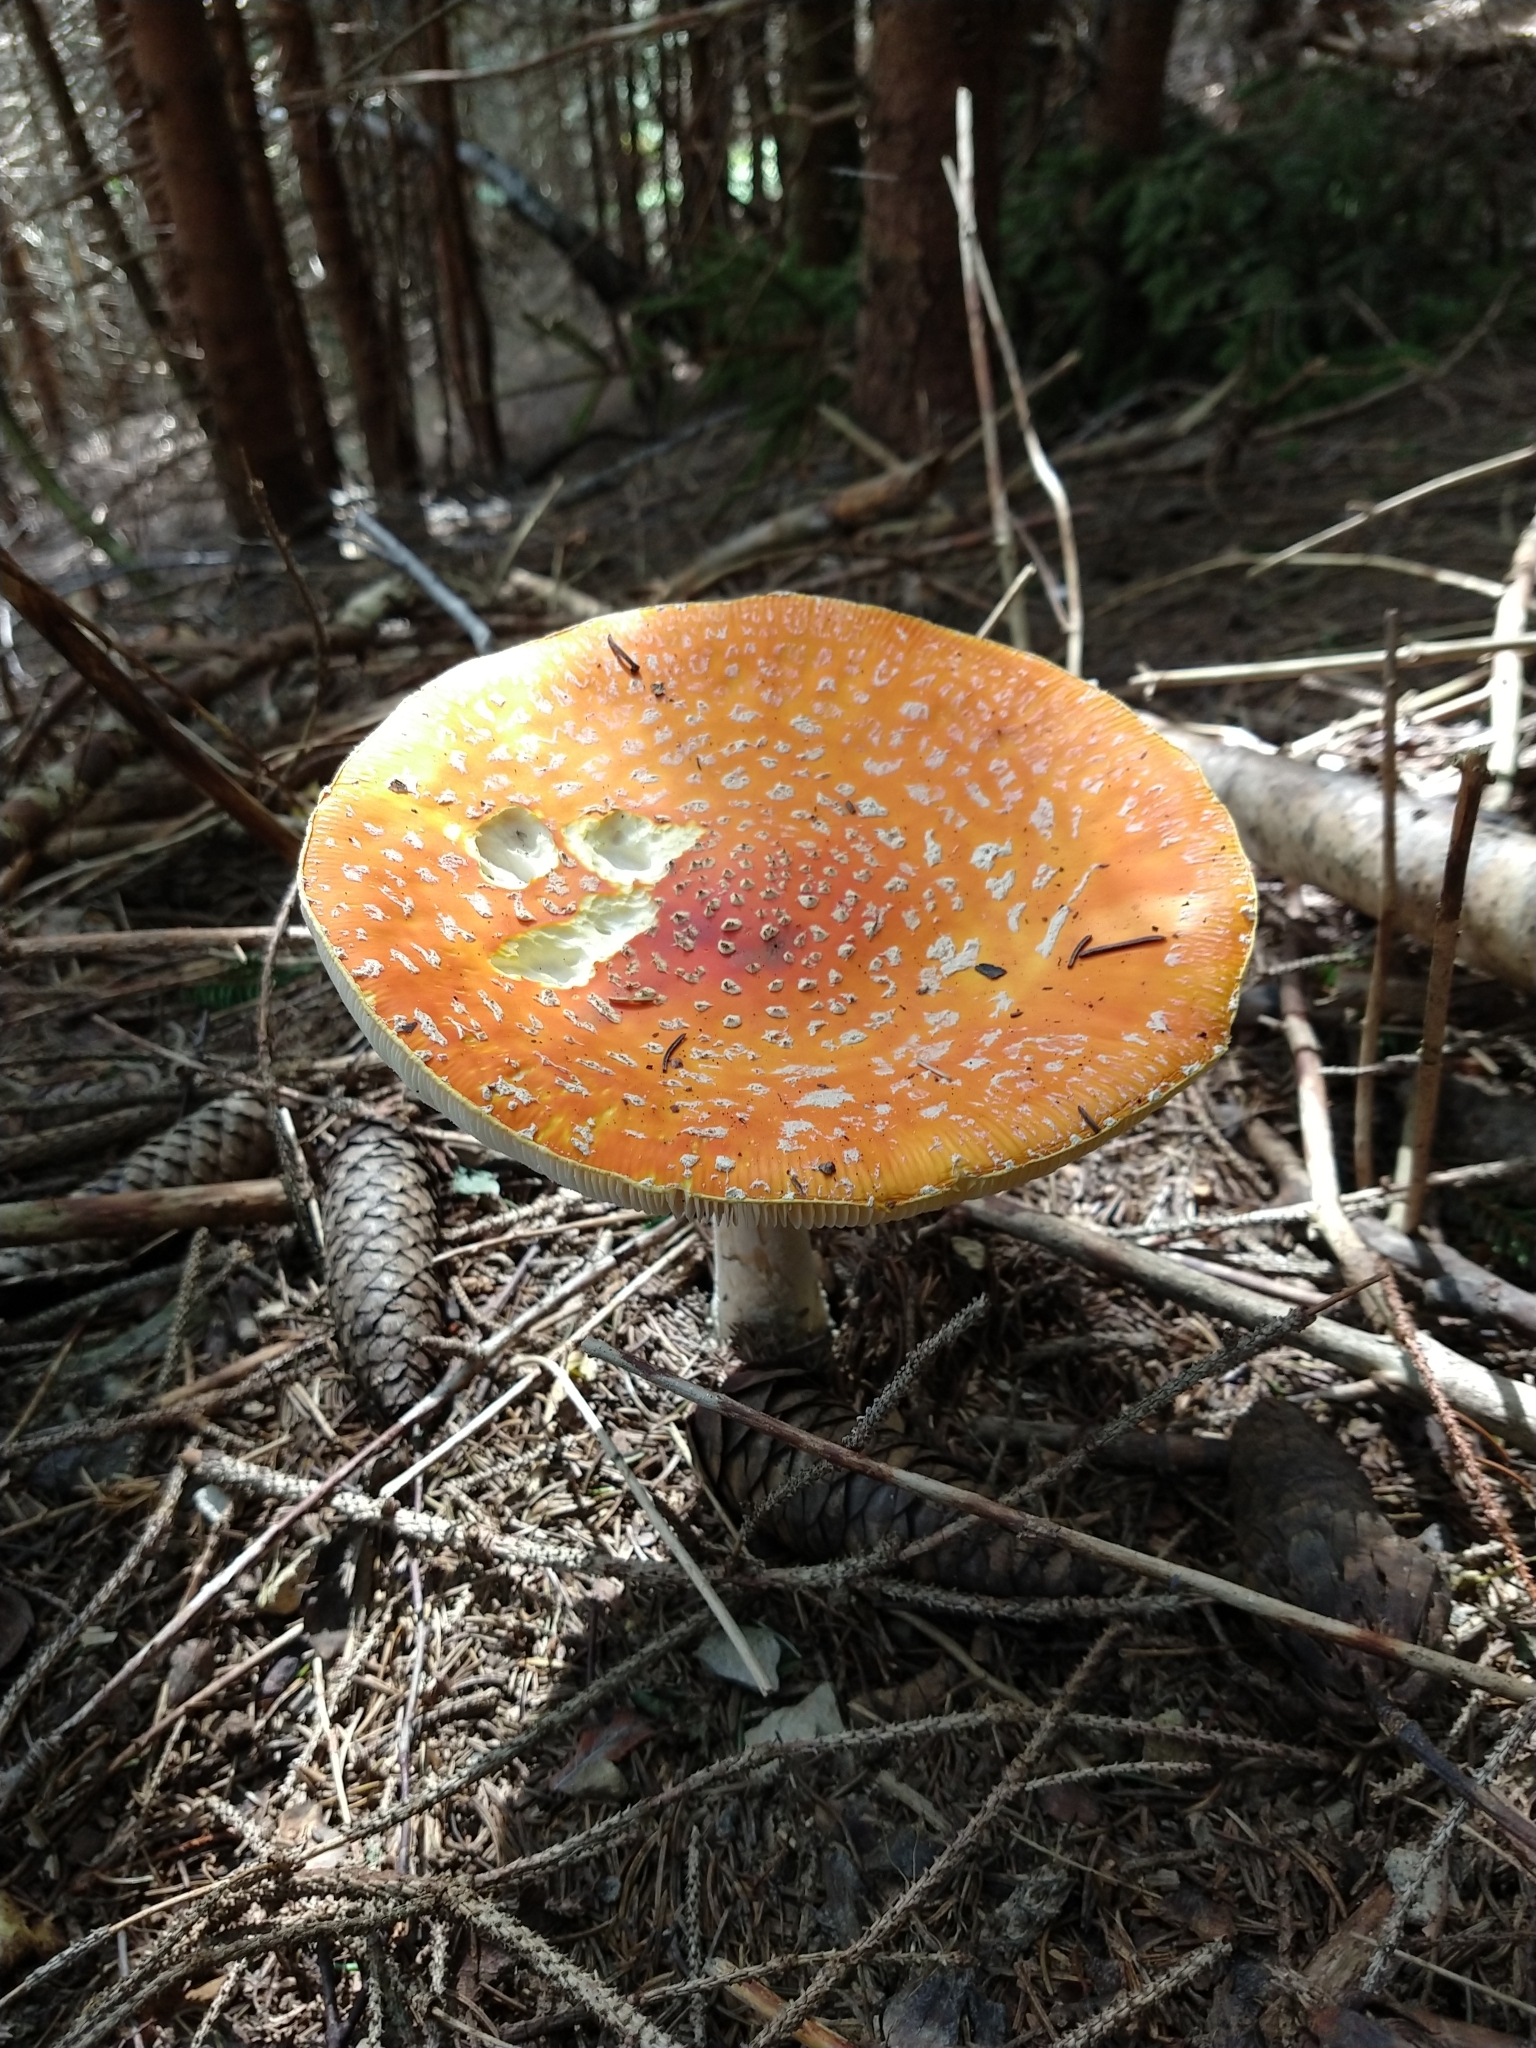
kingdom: Fungi
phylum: Basidiomycota
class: Agaricomycetes
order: Agaricales
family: Amanitaceae
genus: Amanita
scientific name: Amanita muscaria
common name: Fly agaric
